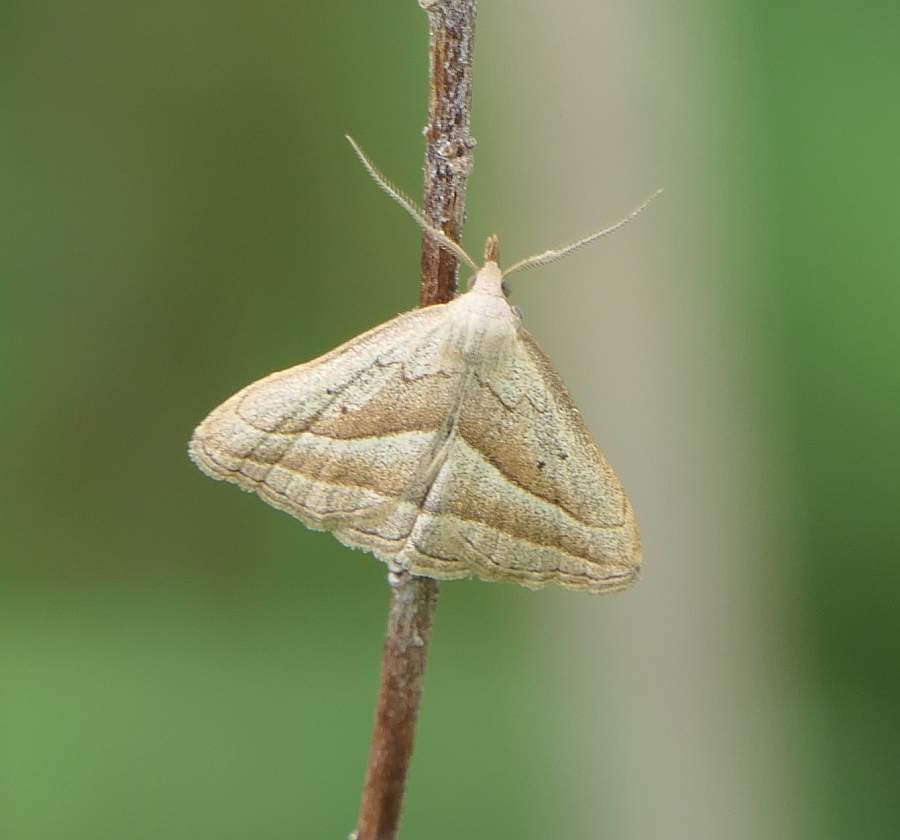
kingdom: Animalia
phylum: Arthropoda
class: Insecta
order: Lepidoptera
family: Erebidae
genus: Macrochilo
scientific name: Macrochilo absorptalis
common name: Slant-lined owlet
